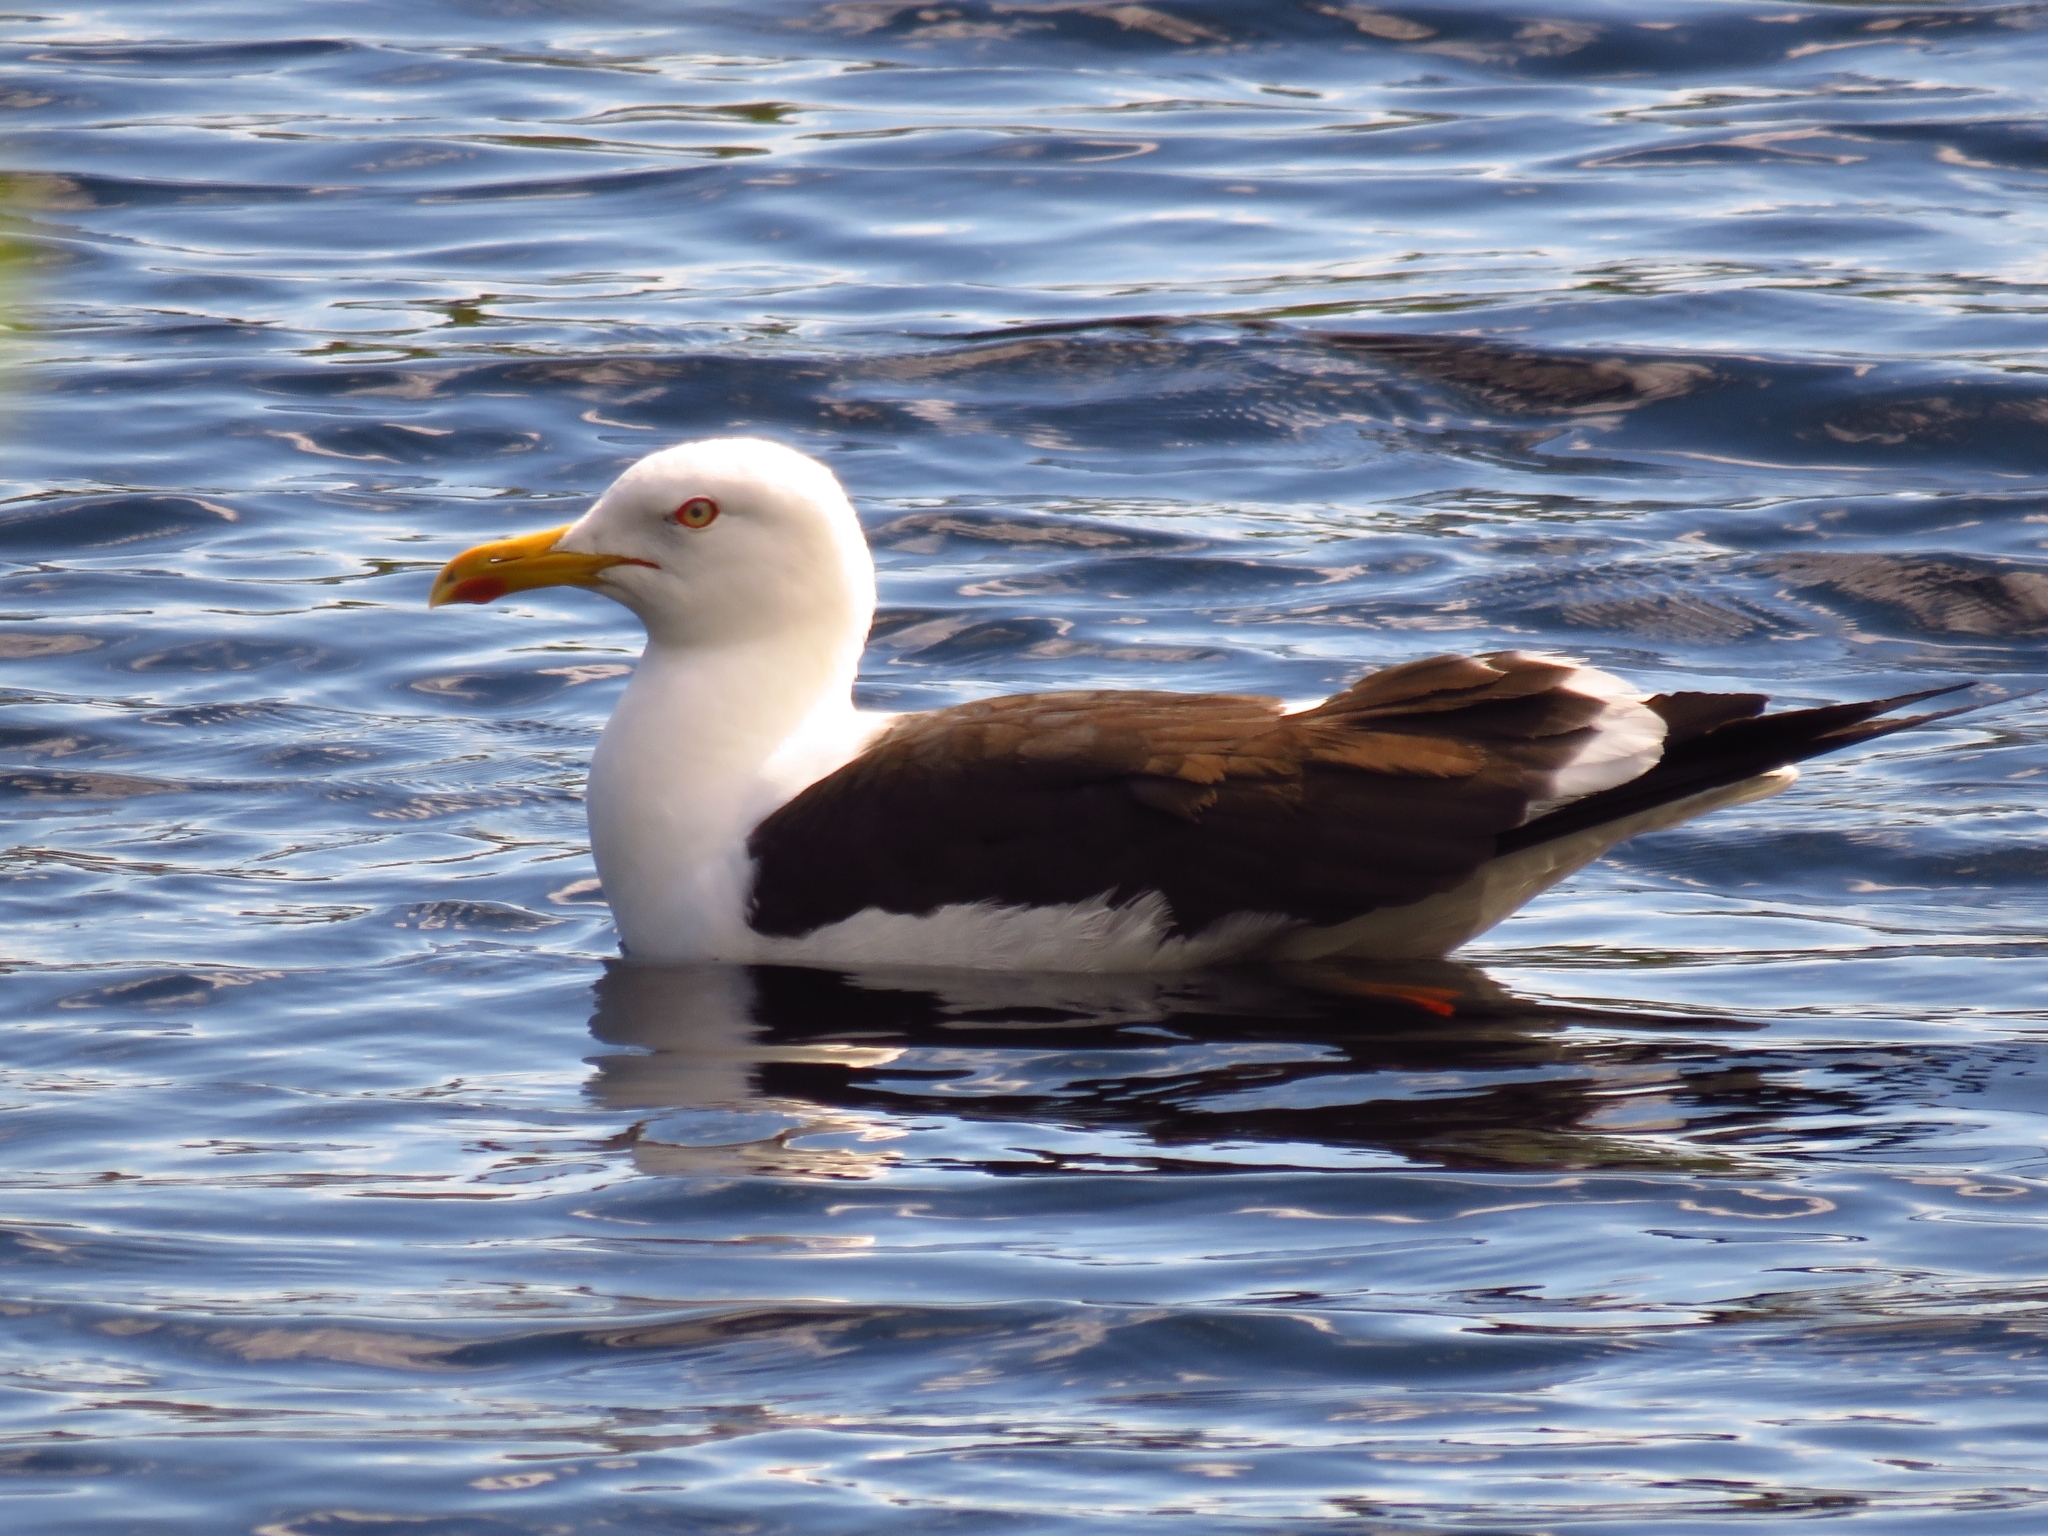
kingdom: Animalia
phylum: Chordata
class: Aves
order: Charadriiformes
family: Laridae
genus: Larus
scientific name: Larus fuscus
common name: Lesser black-backed gull
